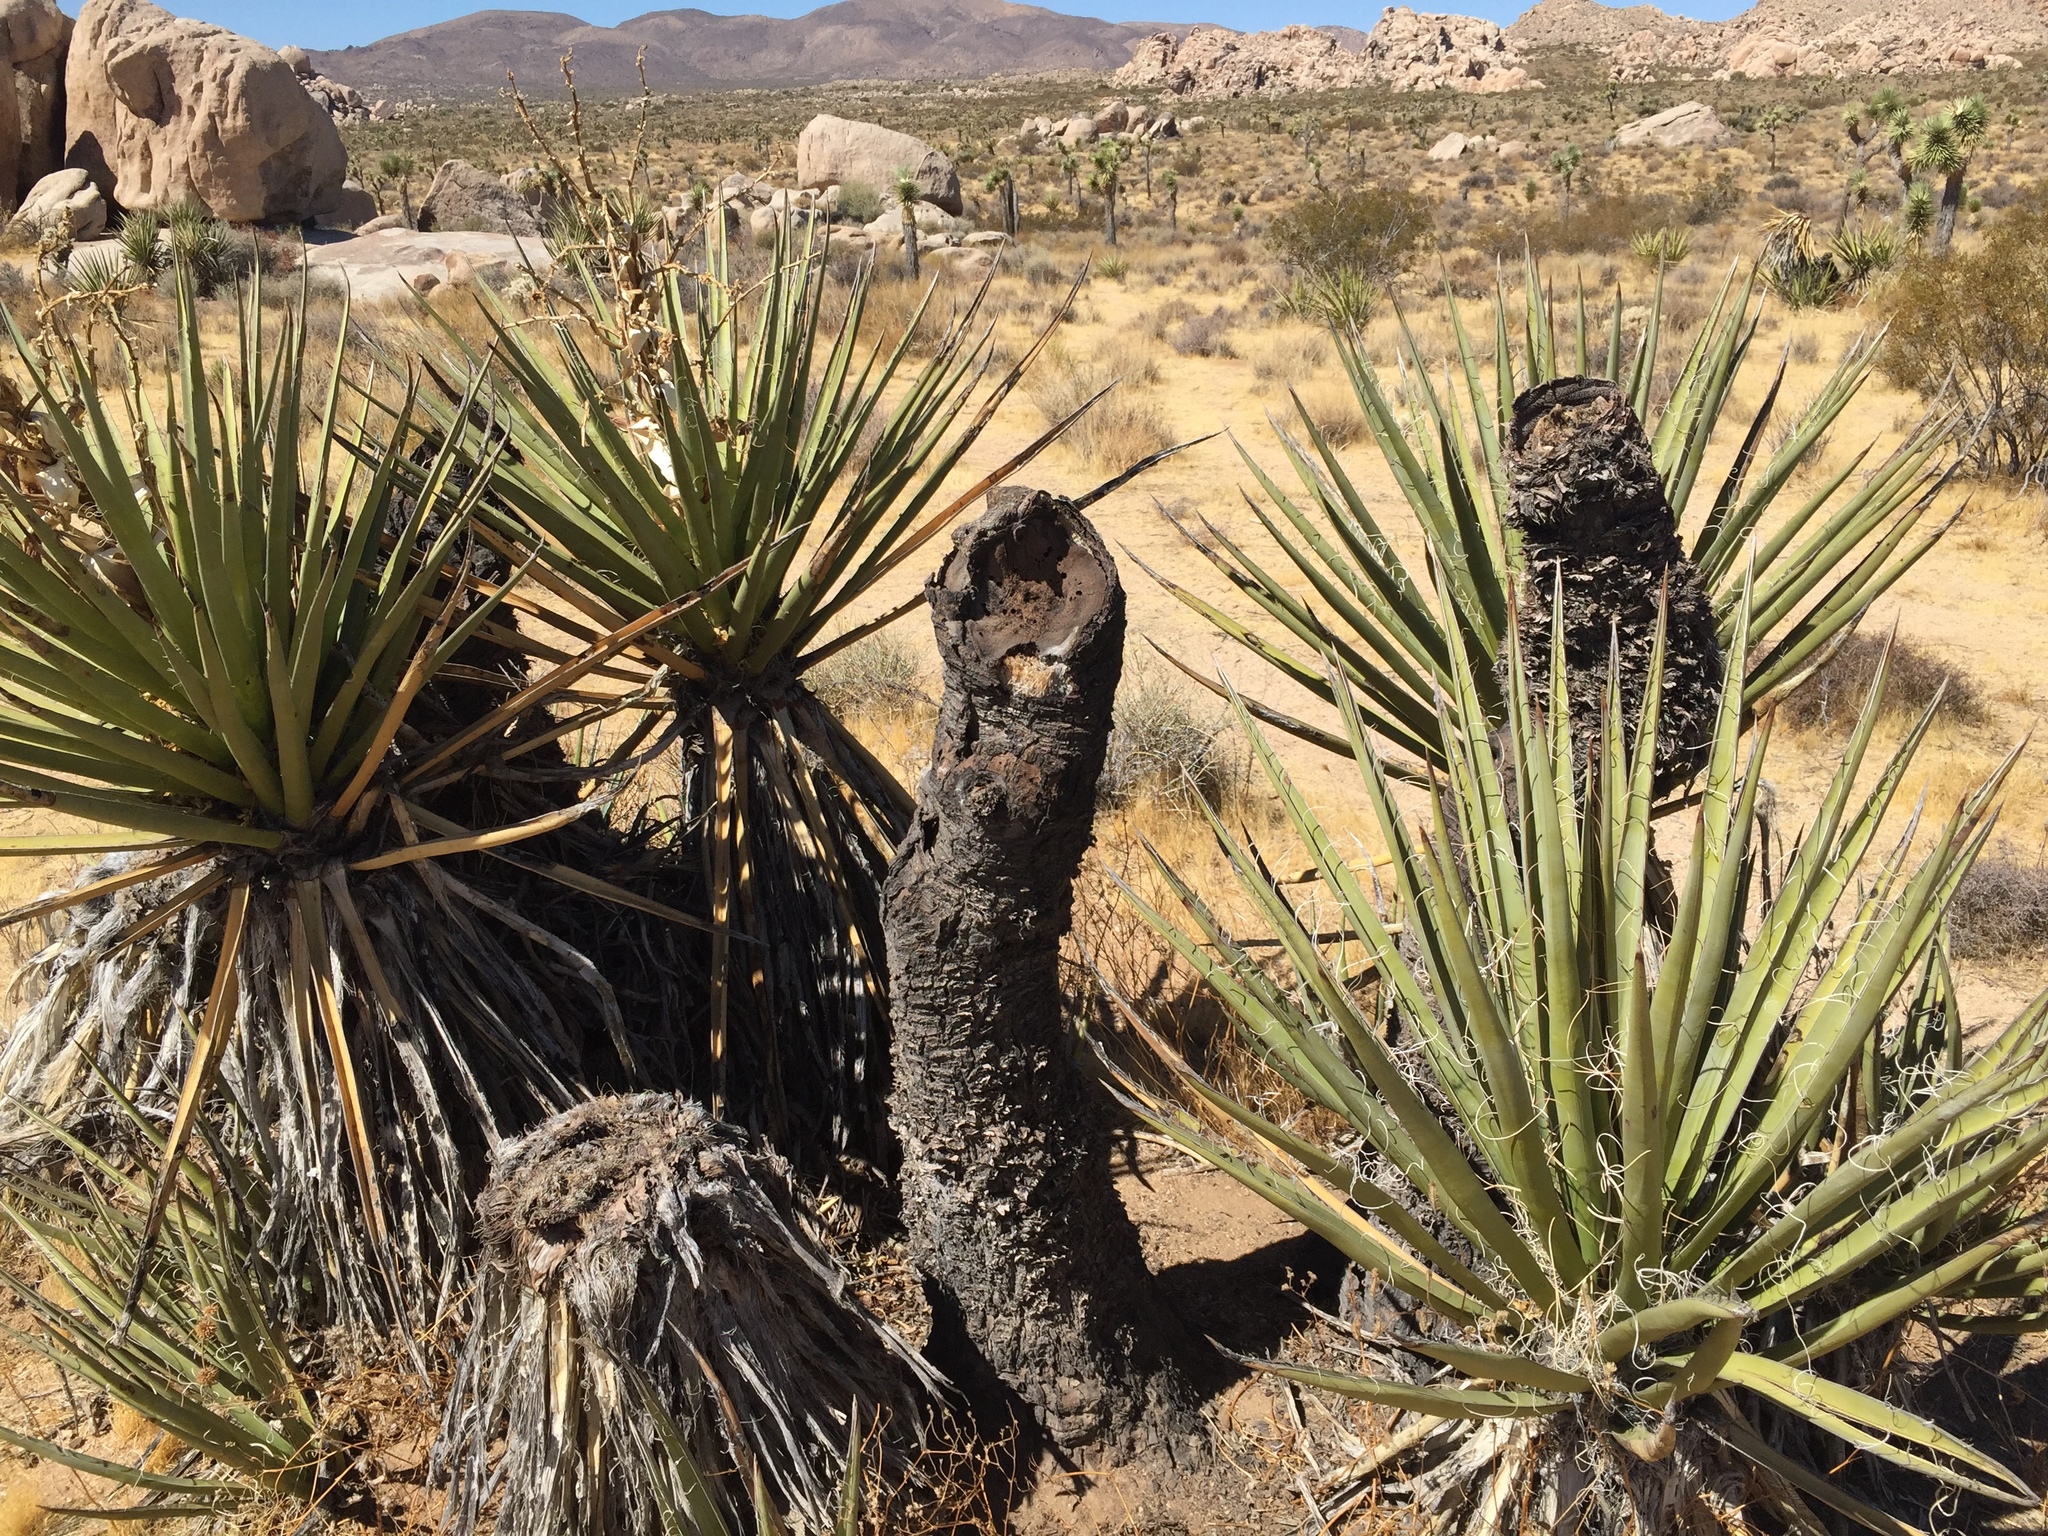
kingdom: Plantae
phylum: Tracheophyta
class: Liliopsida
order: Asparagales
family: Asparagaceae
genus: Yucca
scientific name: Yucca schidigera
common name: Mojave yucca
